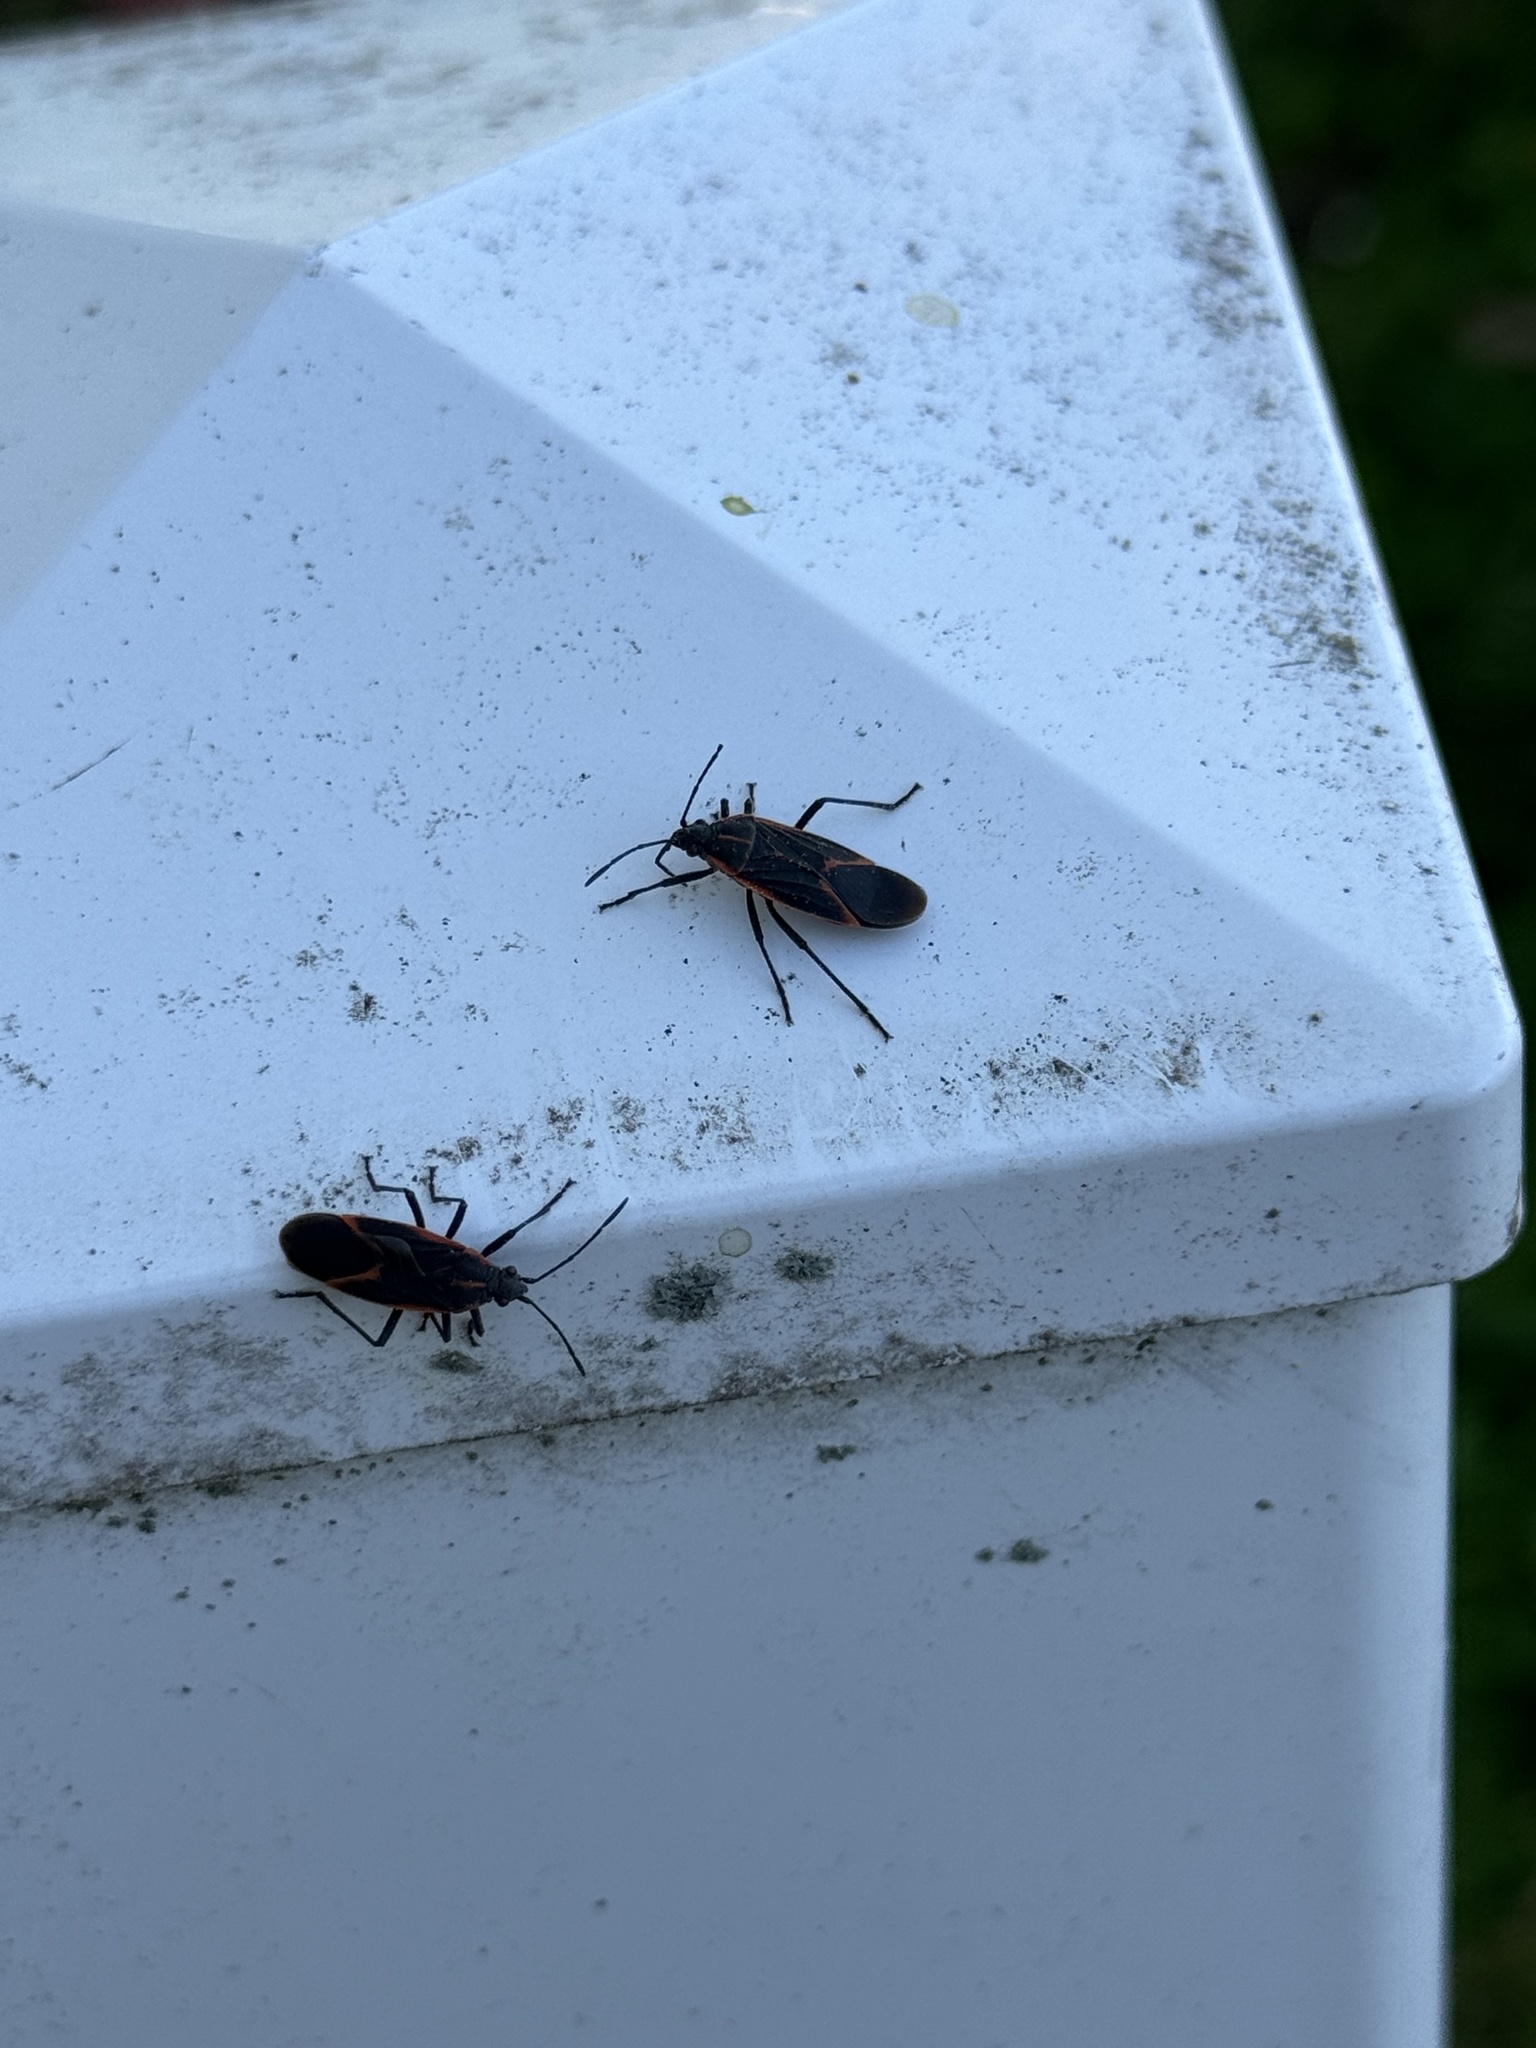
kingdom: Animalia
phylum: Arthropoda
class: Insecta
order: Hemiptera
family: Rhopalidae
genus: Boisea
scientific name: Boisea trivittata
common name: Boxelder bug
